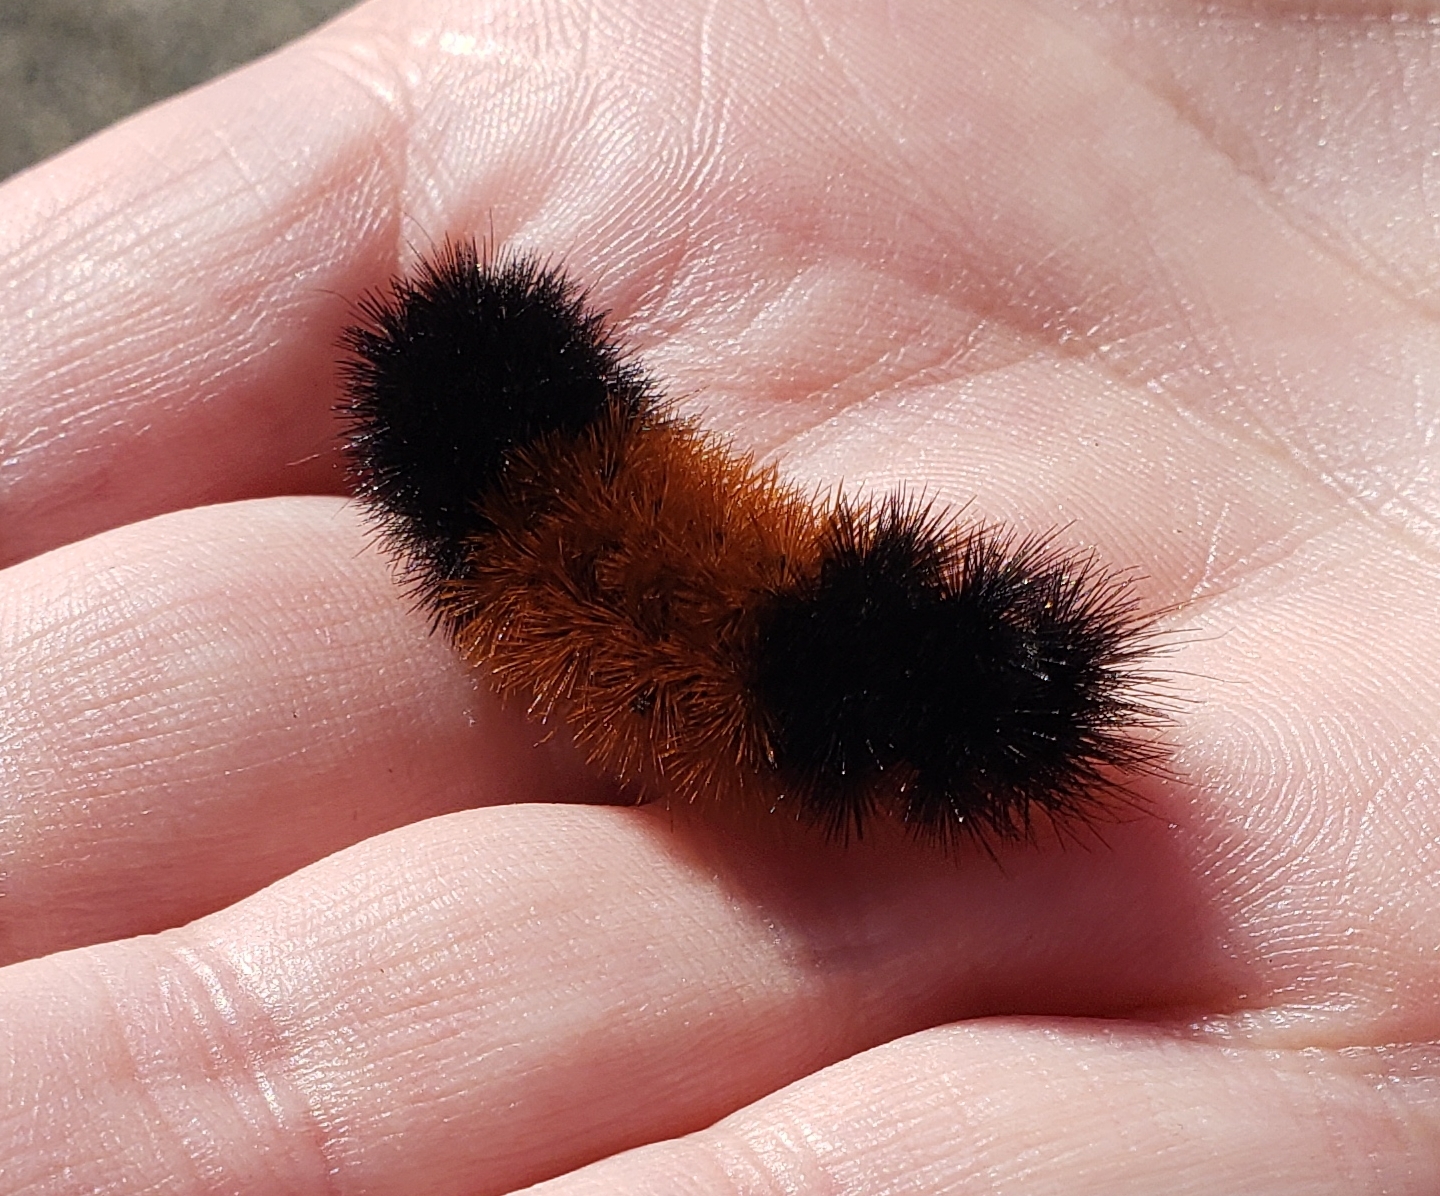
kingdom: Animalia
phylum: Arthropoda
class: Insecta
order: Lepidoptera
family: Erebidae
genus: Pyrrharctia
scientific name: Pyrrharctia isabella
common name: Isabella tiger moth
